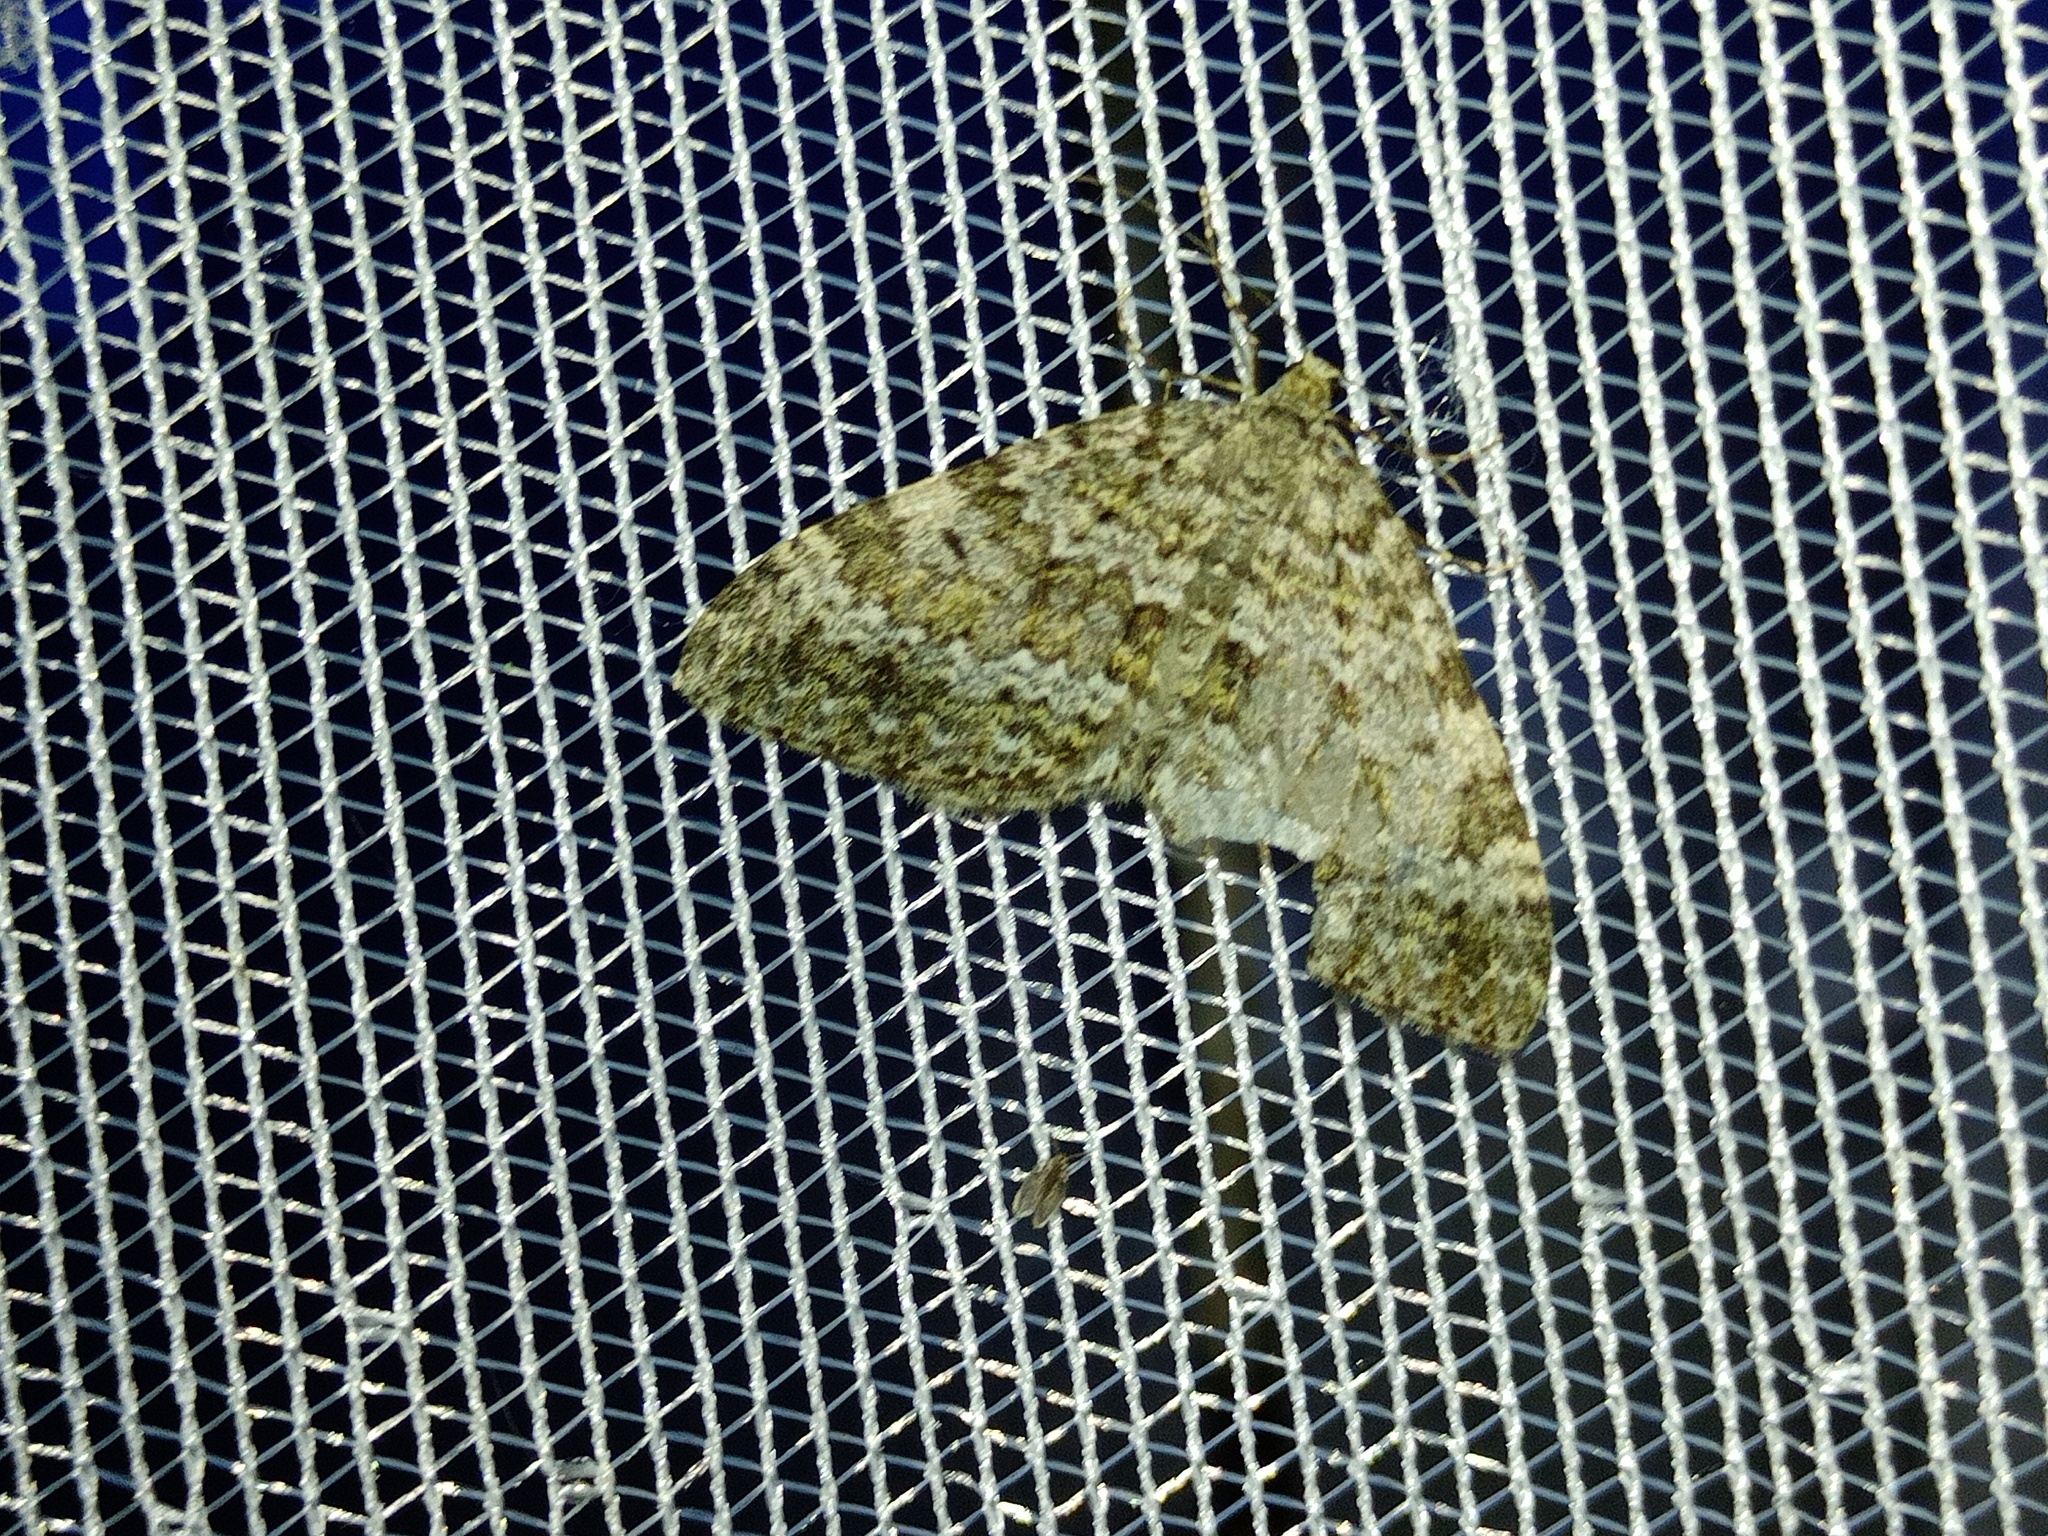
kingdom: Animalia
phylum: Arthropoda
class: Insecta
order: Lepidoptera
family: Geometridae
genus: Entephria
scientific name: Entephria caesiata
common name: Grey mountain moth
